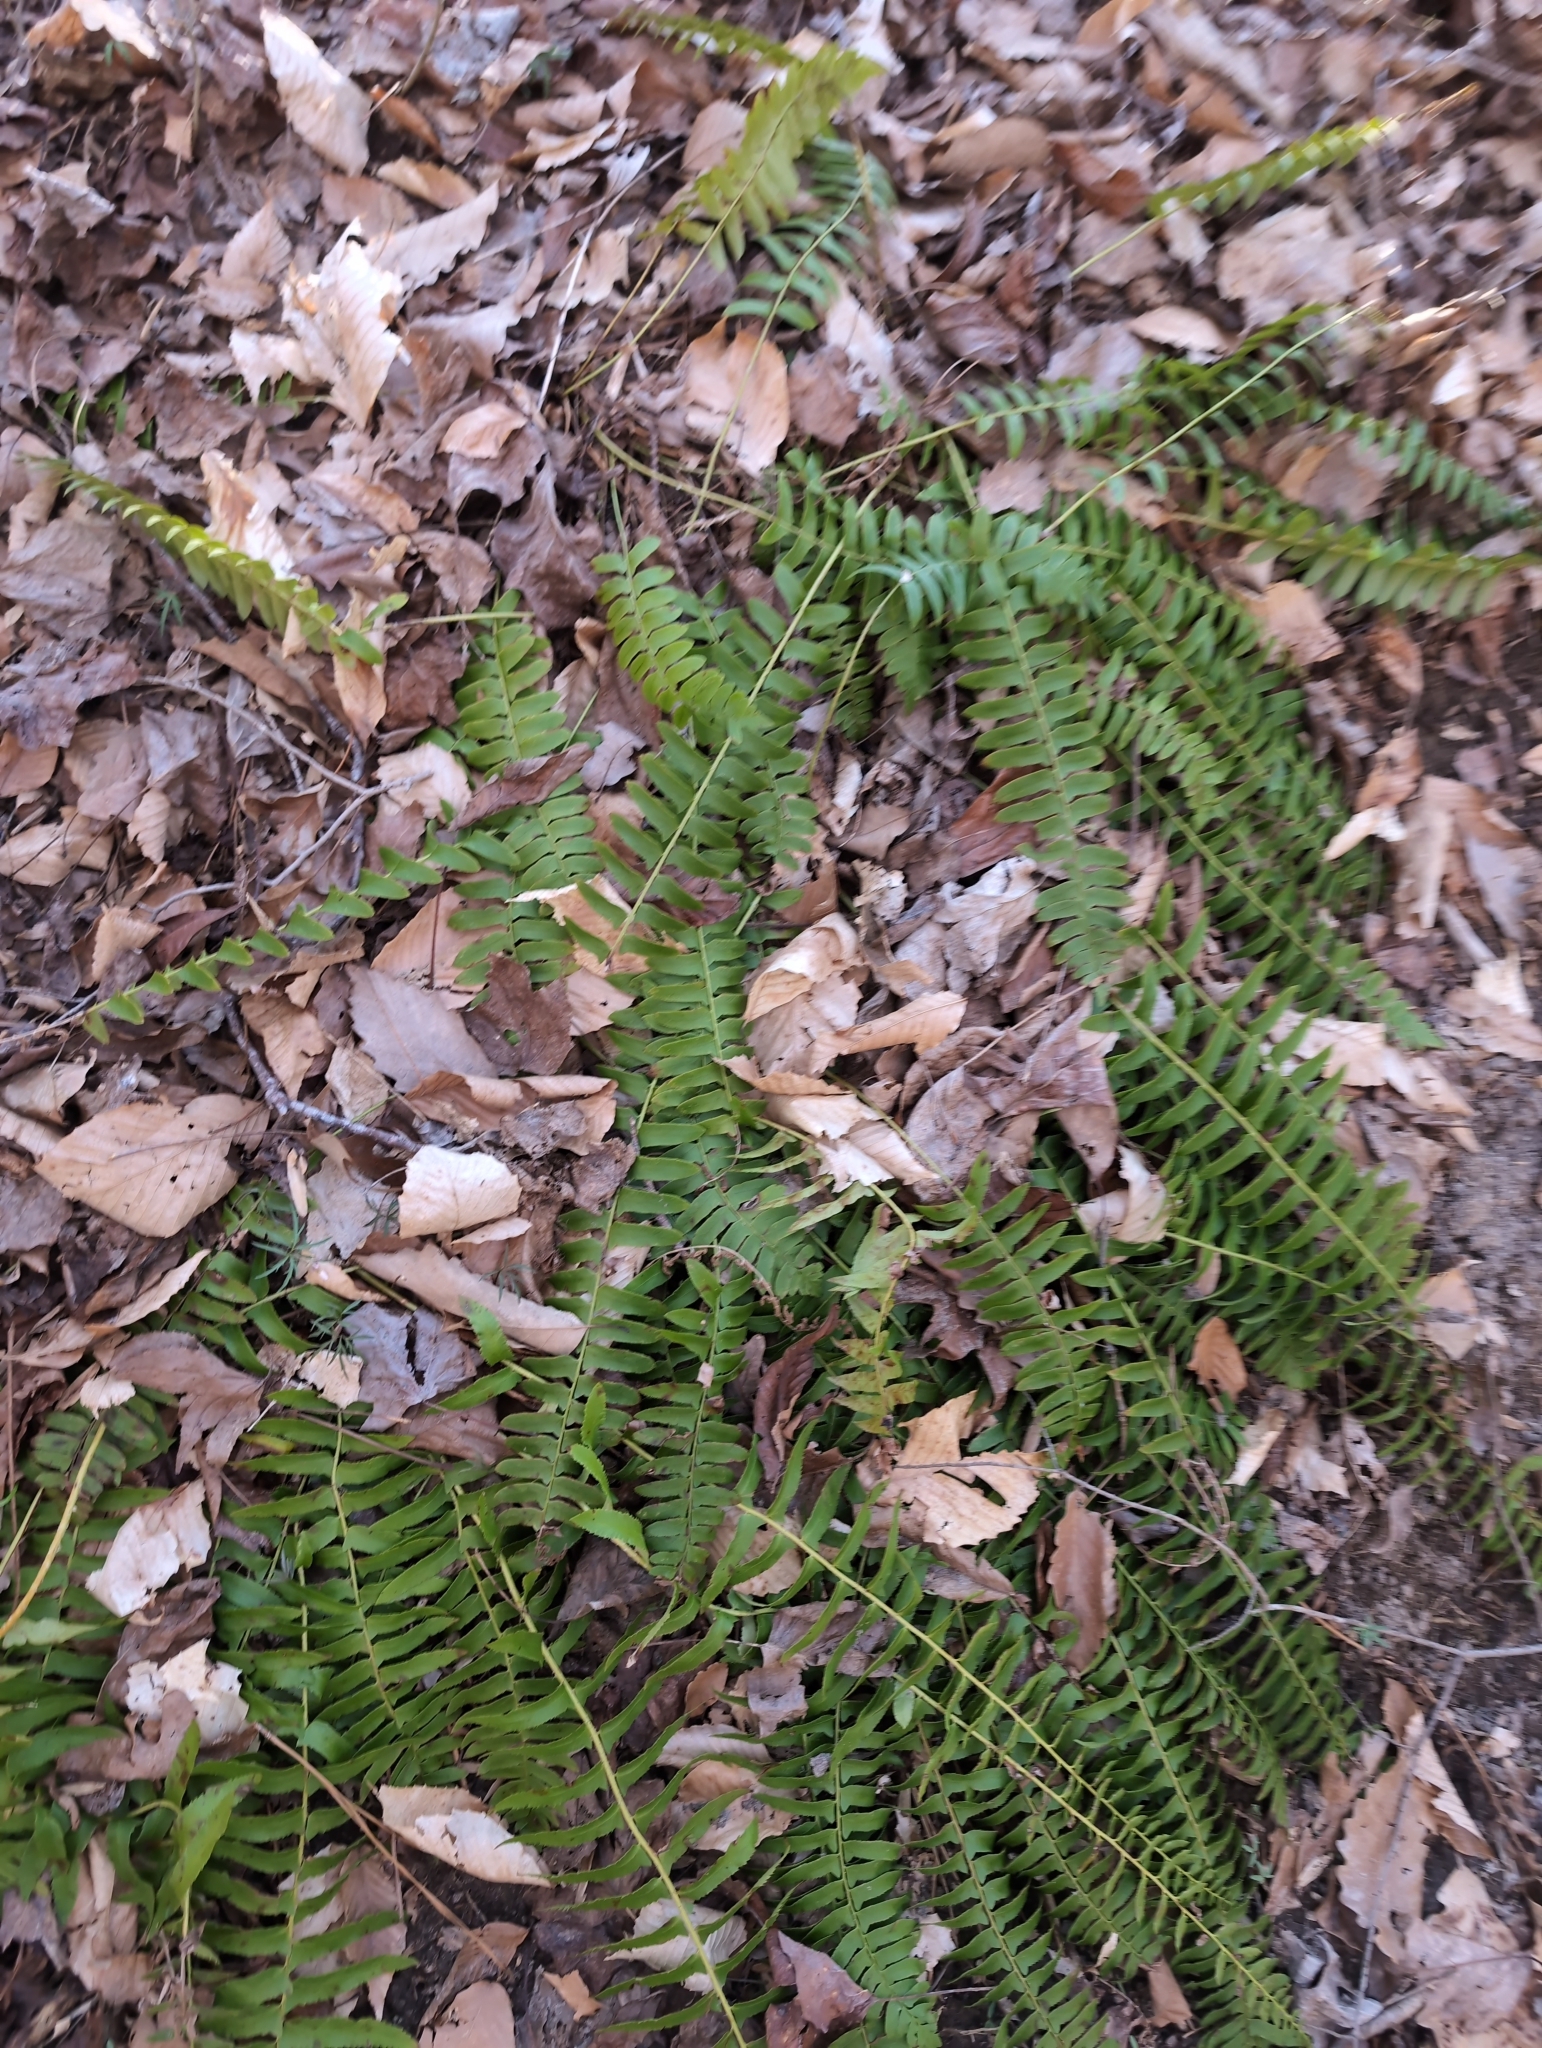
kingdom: Plantae
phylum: Tracheophyta
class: Polypodiopsida
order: Polypodiales
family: Dryopteridaceae
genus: Polystichum
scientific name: Polystichum acrostichoides
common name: Christmas fern
